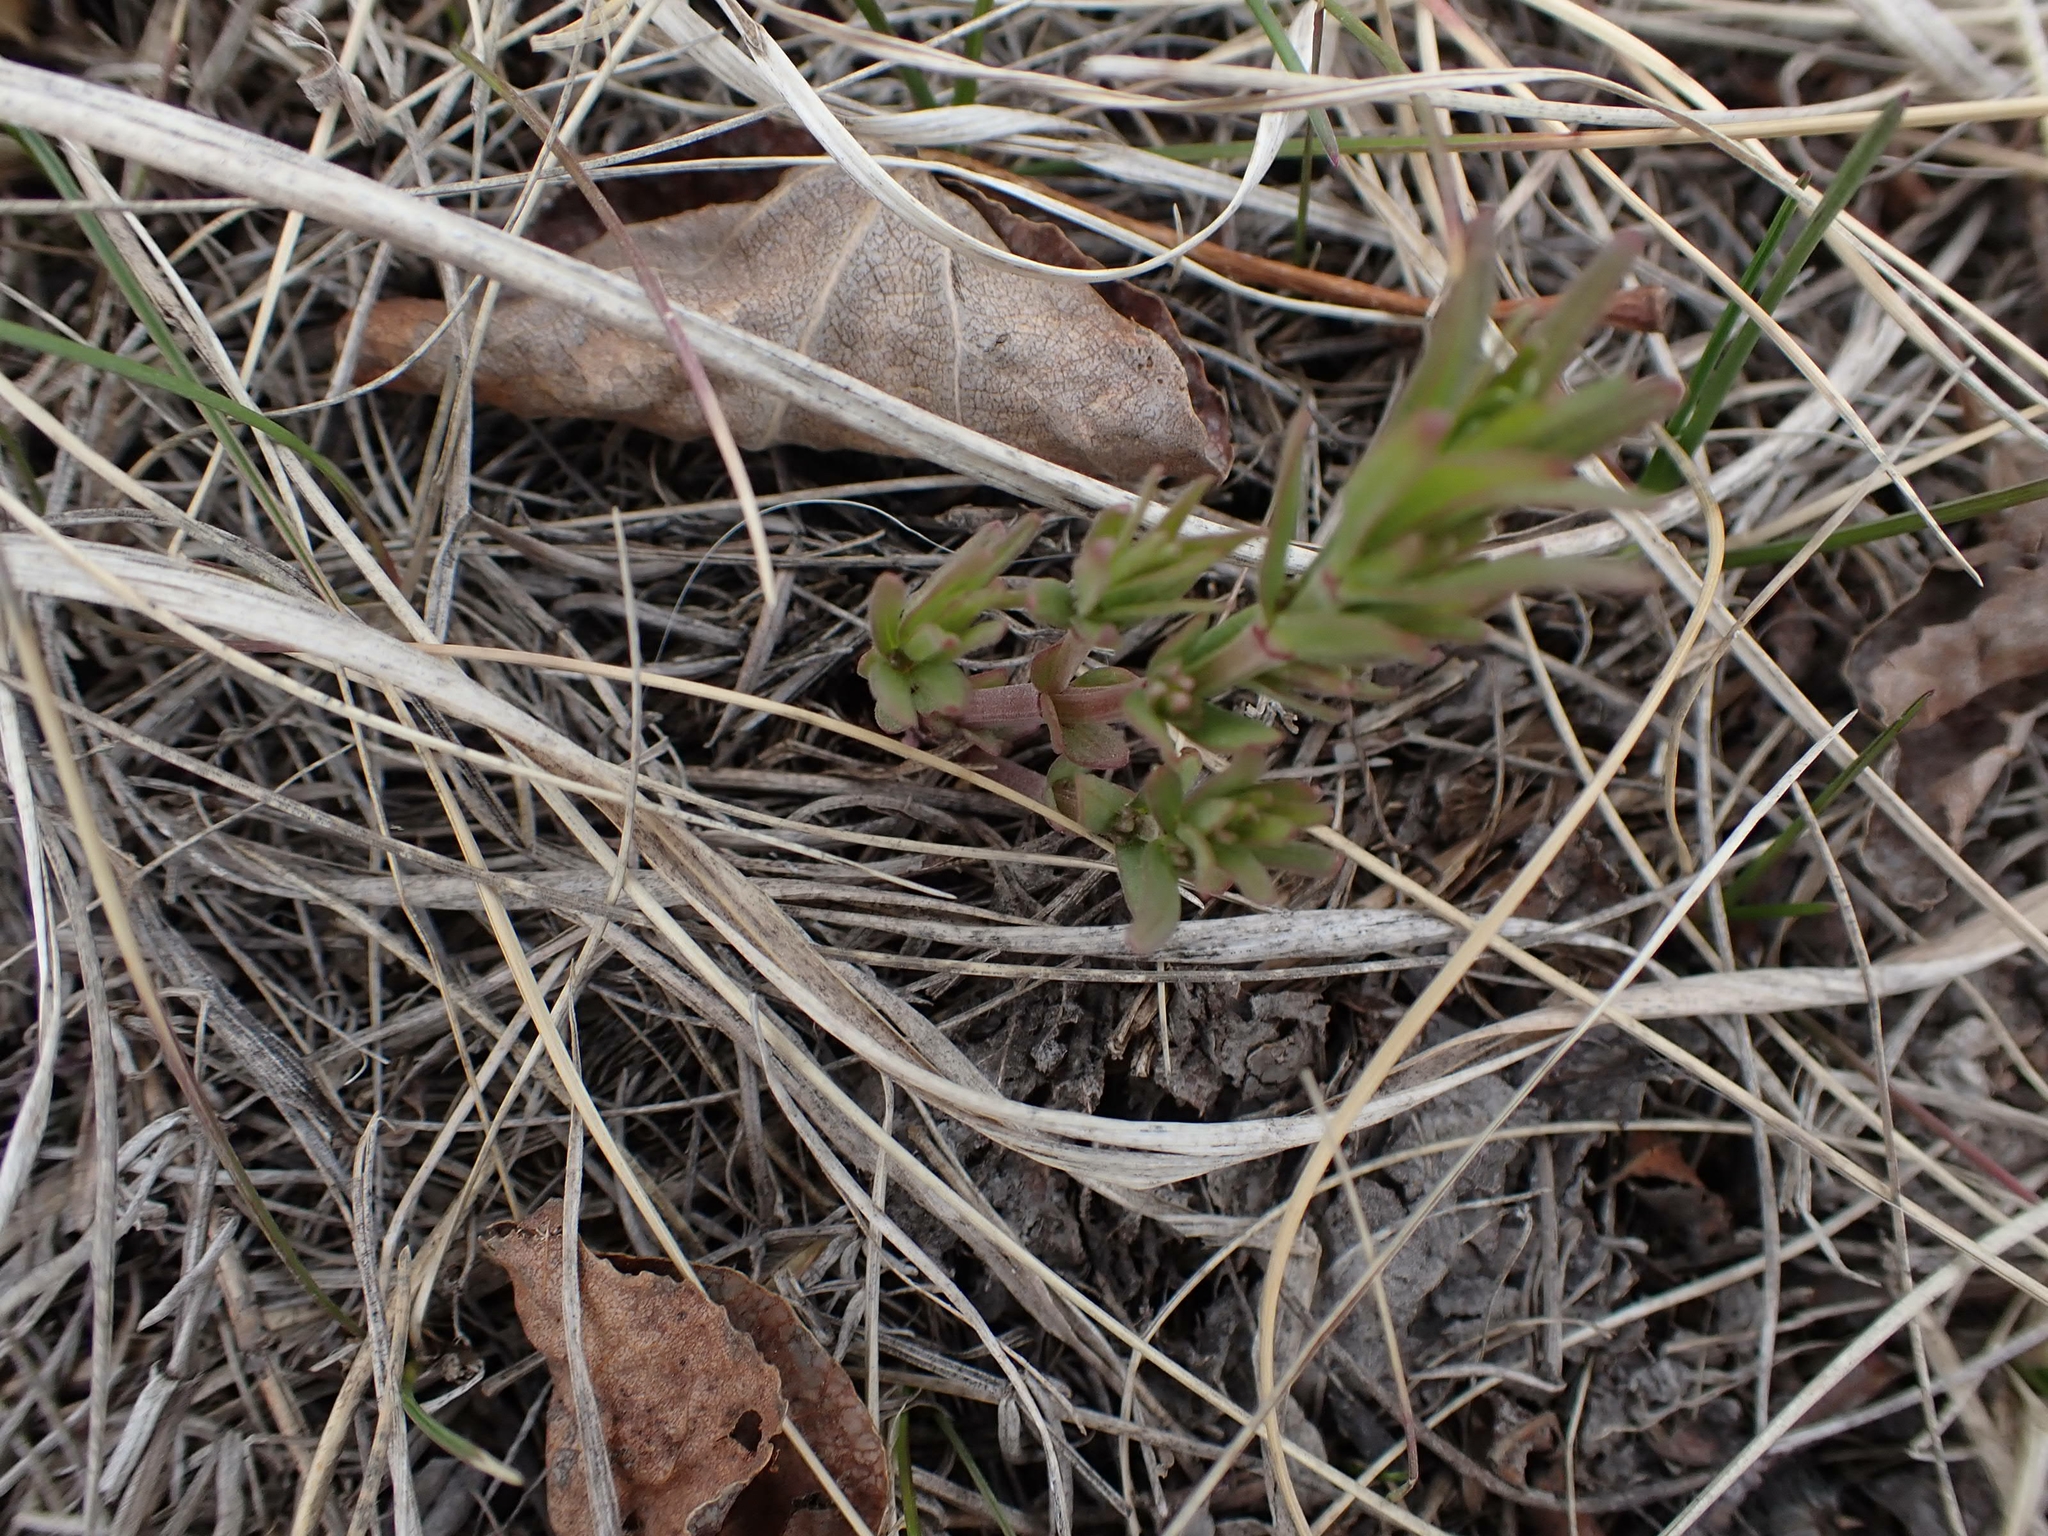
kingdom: Plantae
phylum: Tracheophyta
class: Magnoliopsida
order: Santalales
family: Comandraceae
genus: Comandra
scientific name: Comandra umbellata
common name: Bastard toadflax
